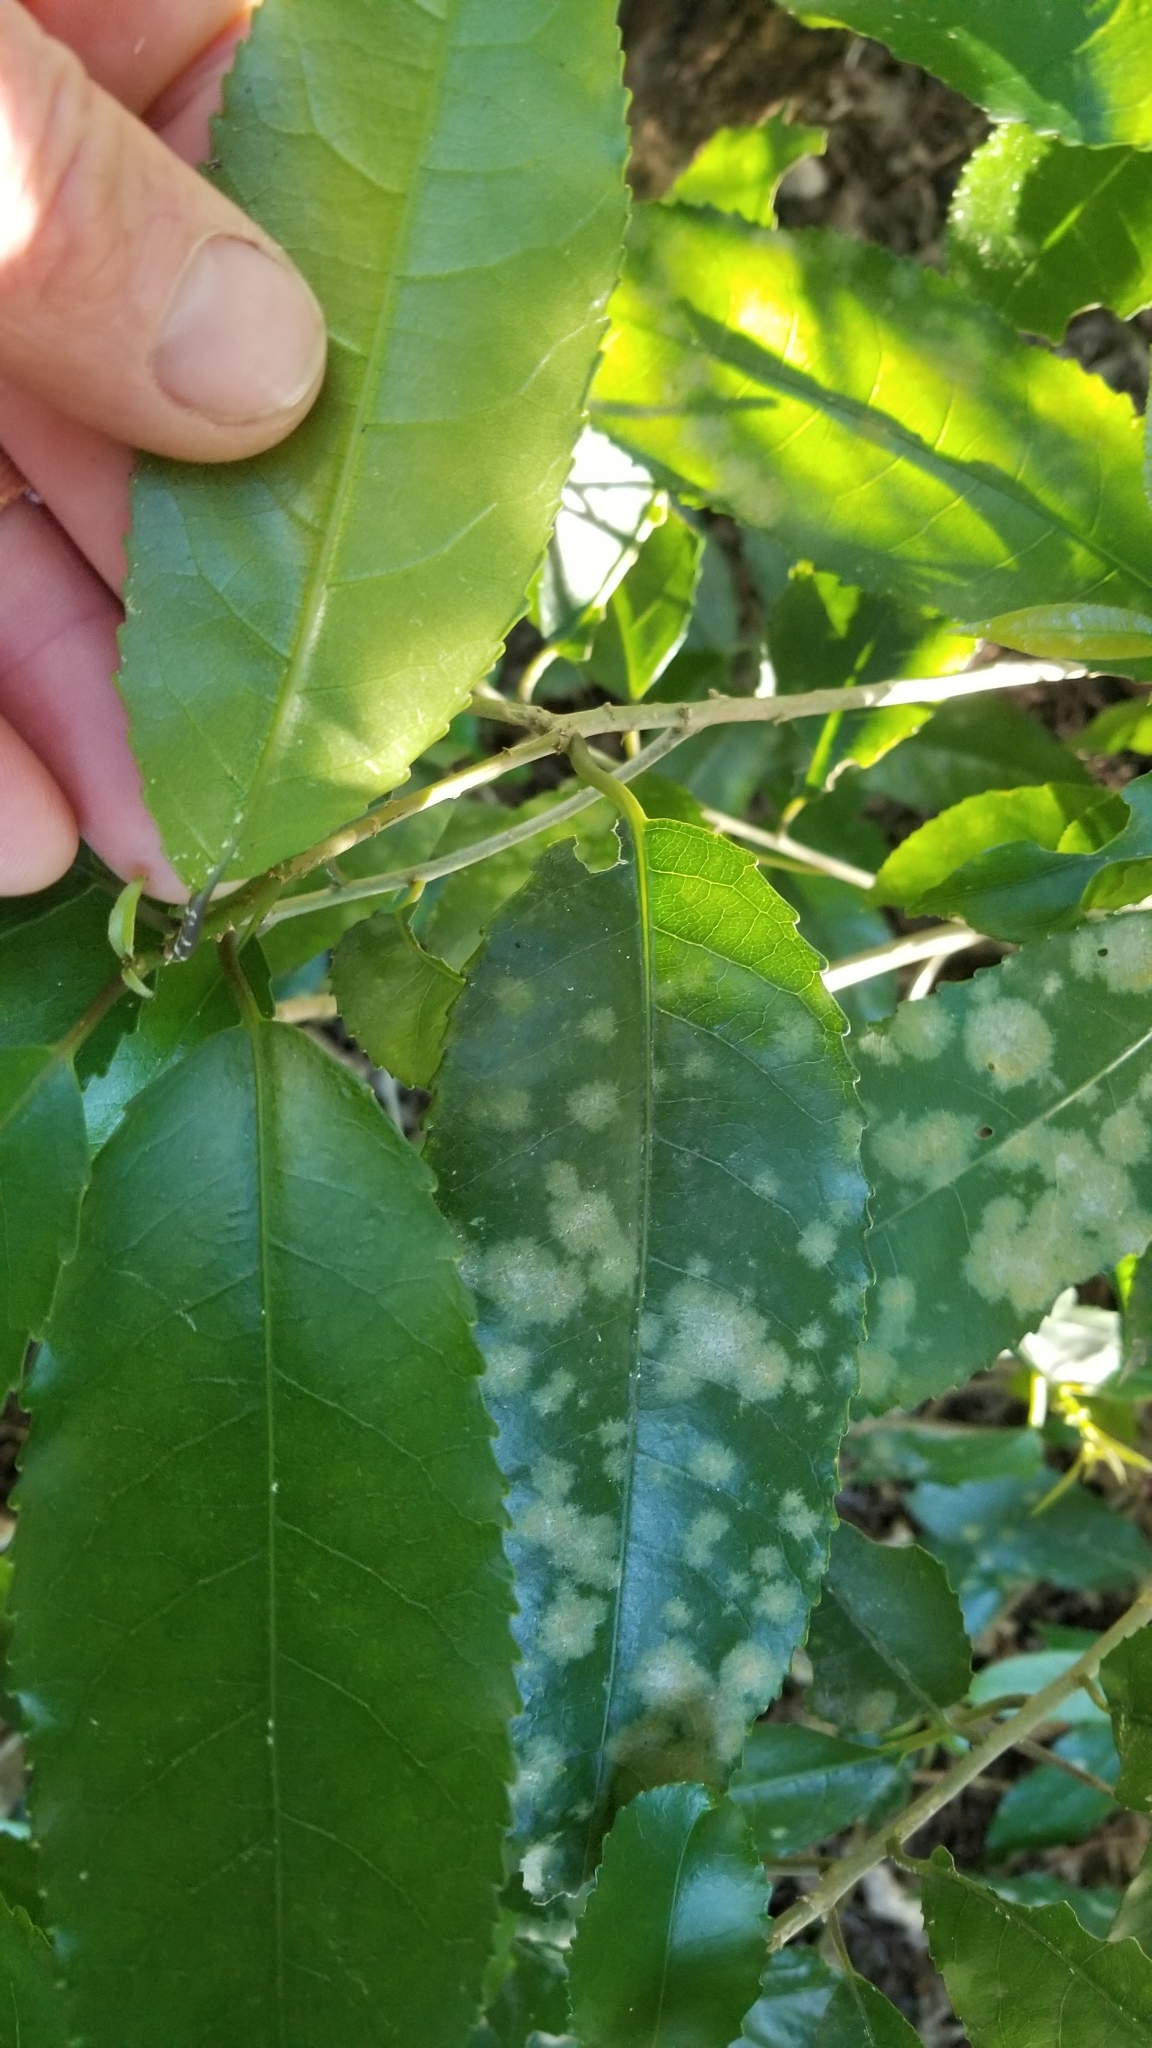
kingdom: Plantae
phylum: Tracheophyta
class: Magnoliopsida
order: Malpighiales
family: Violaceae
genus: Melicytus
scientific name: Melicytus ramiflorus
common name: Mahoe
